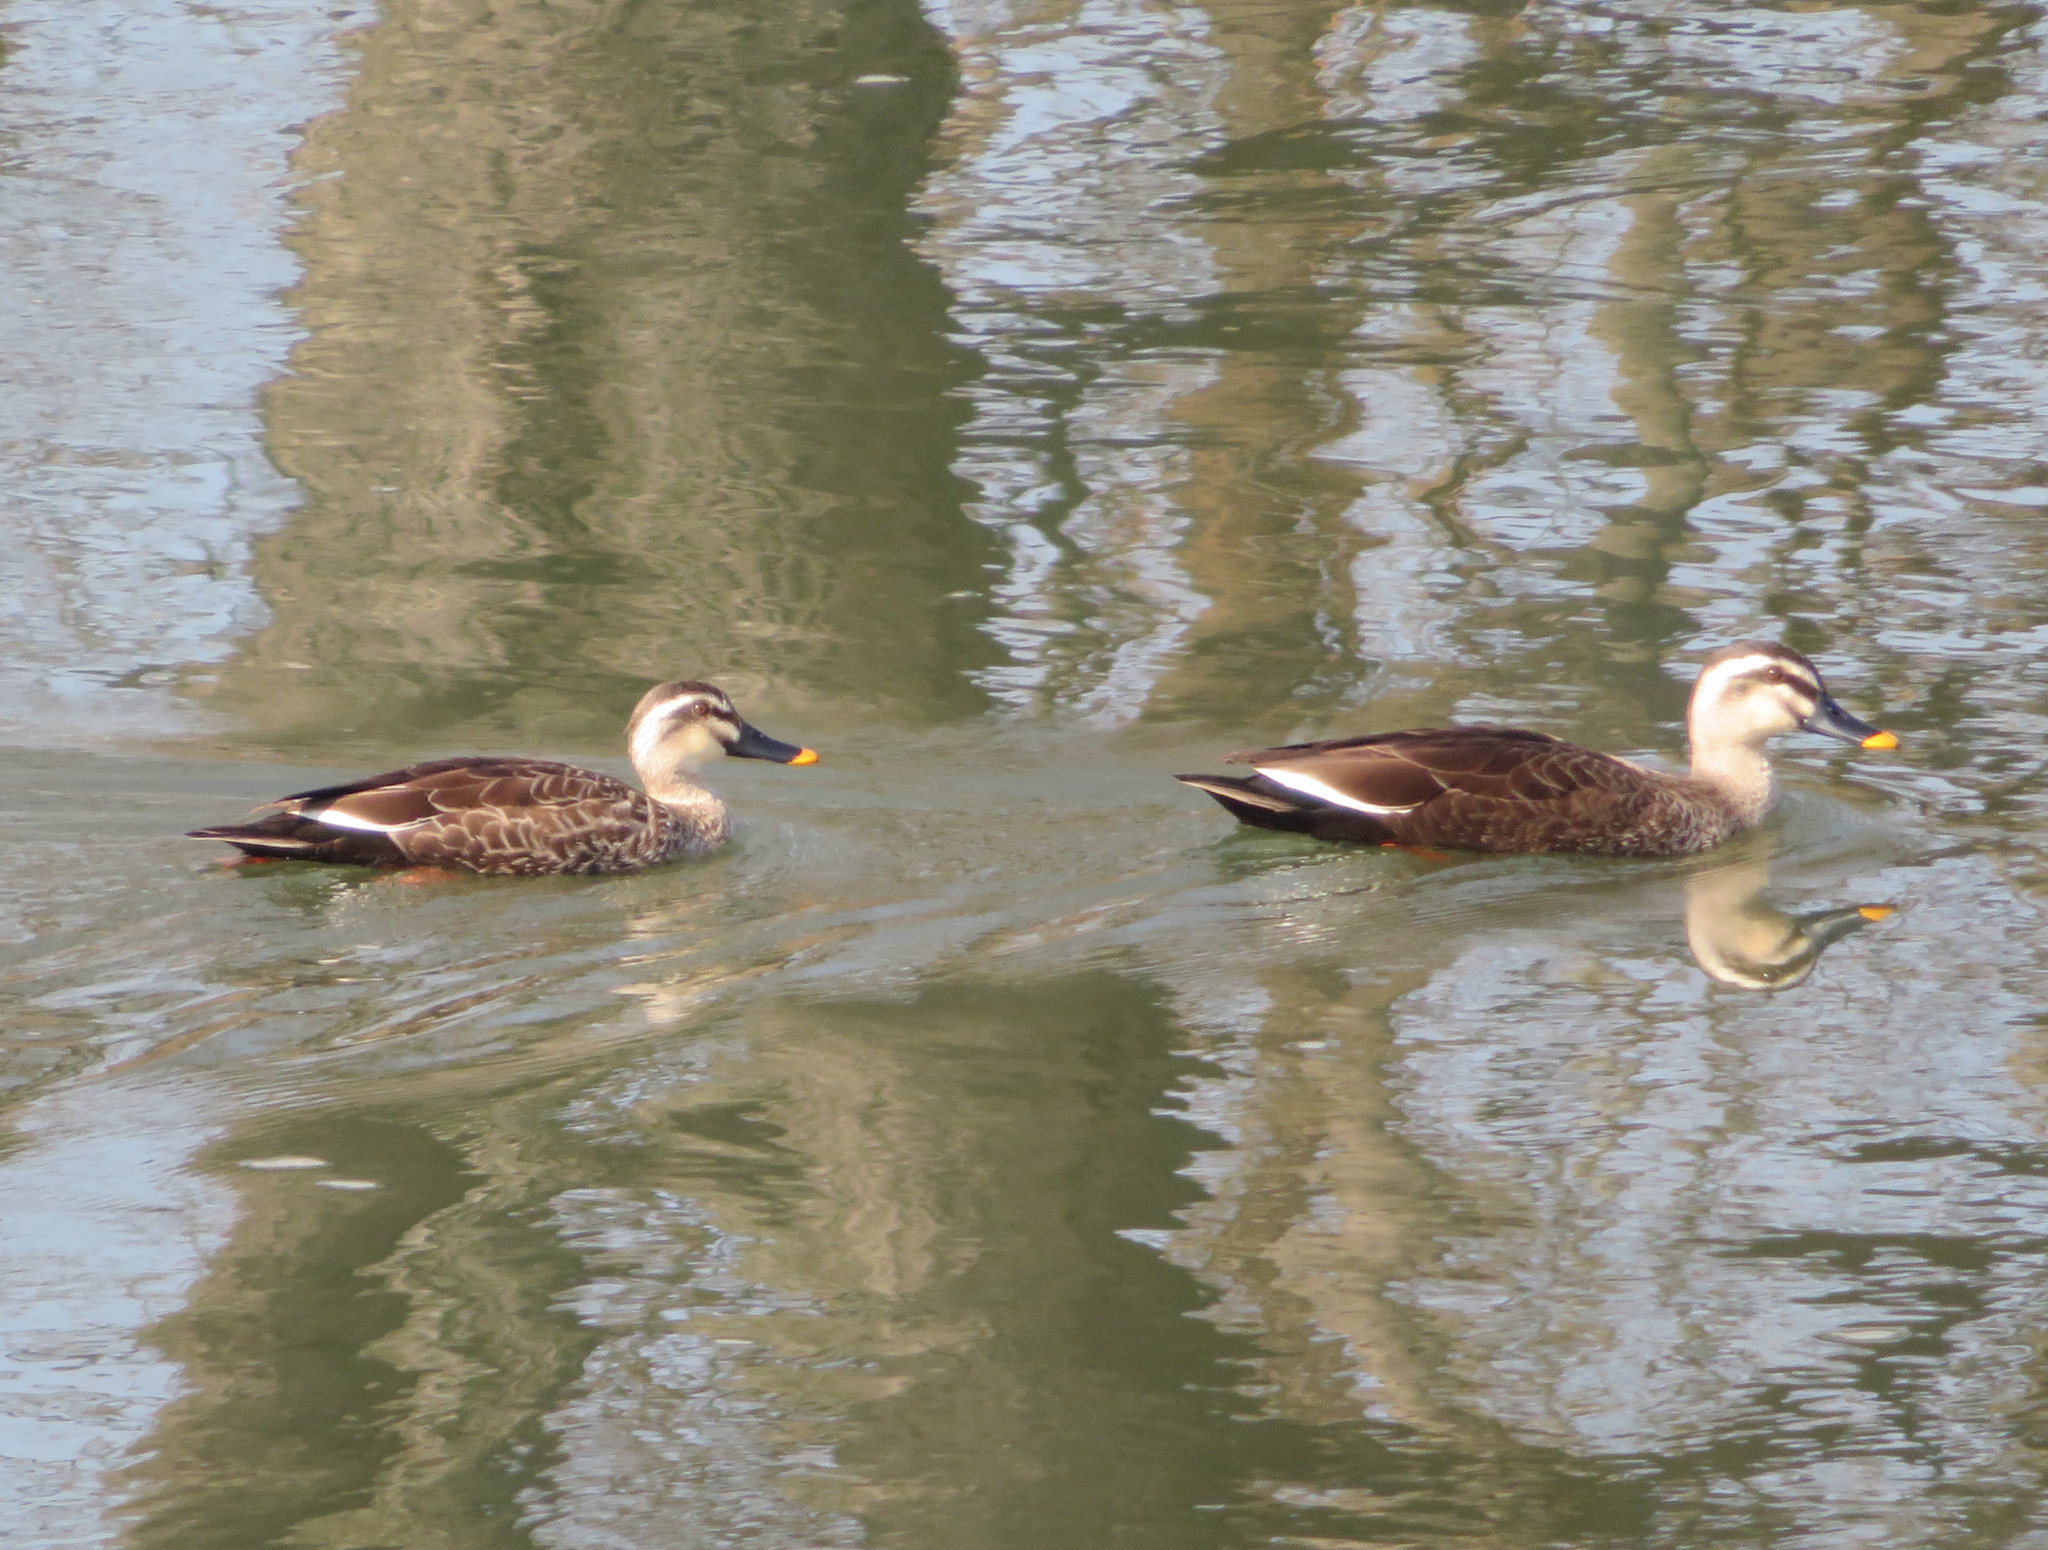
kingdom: Animalia
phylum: Chordata
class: Aves
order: Anseriformes
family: Anatidae
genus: Anas
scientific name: Anas zonorhyncha
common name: Eastern spot-billed duck
